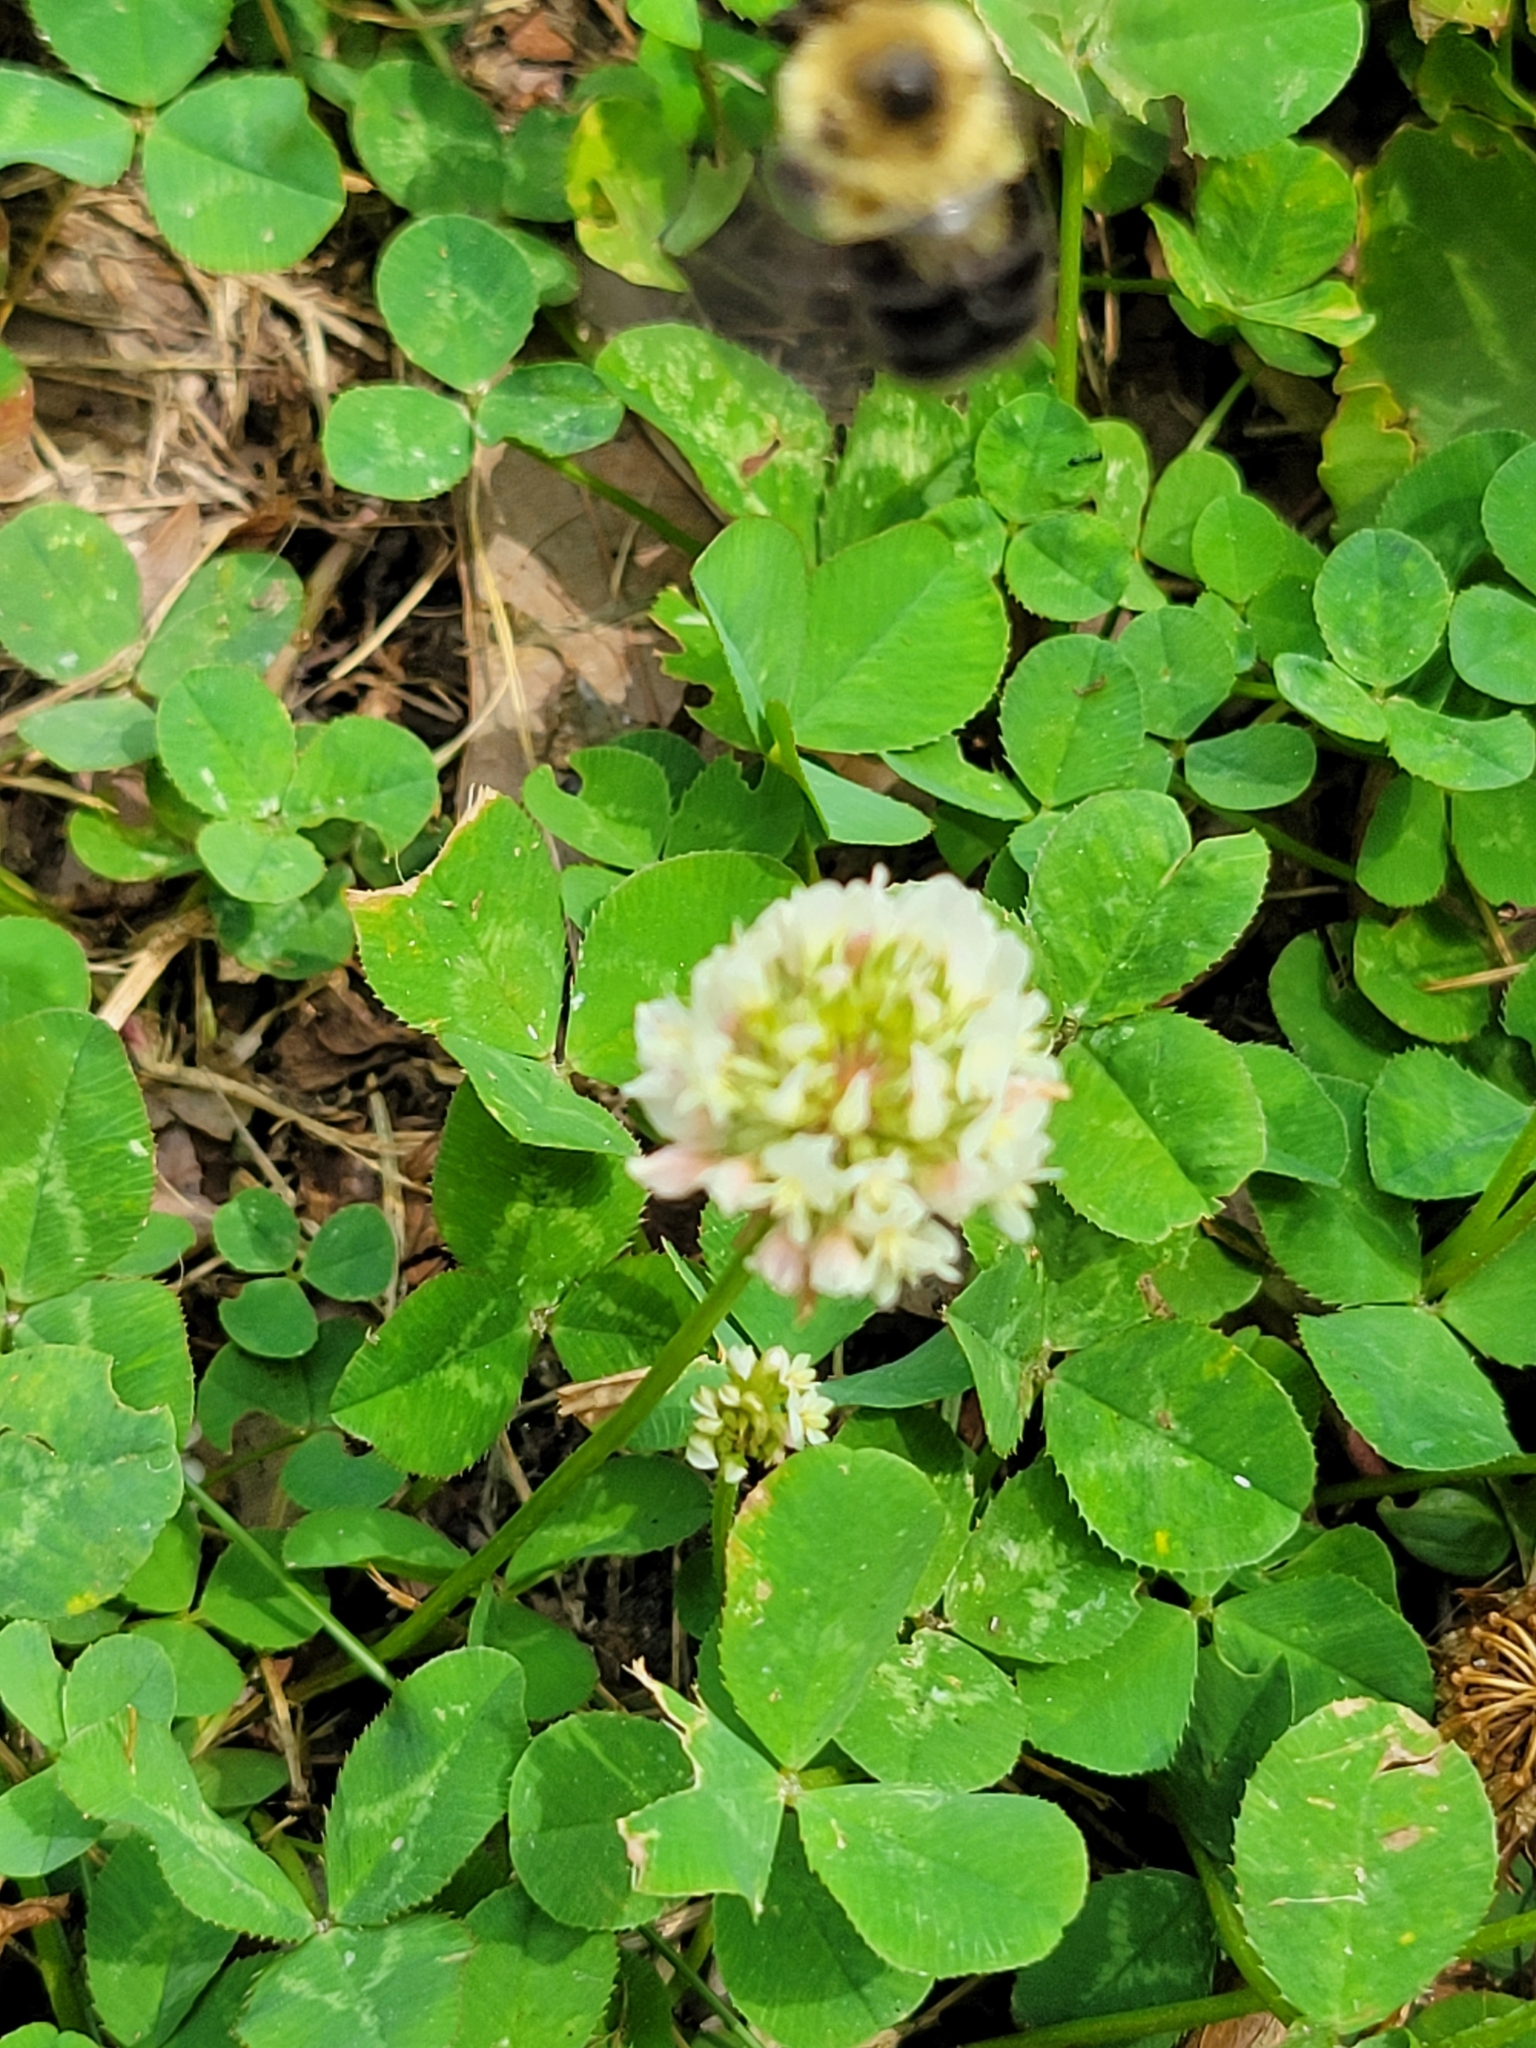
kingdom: Plantae
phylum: Tracheophyta
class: Magnoliopsida
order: Fabales
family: Fabaceae
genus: Trifolium
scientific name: Trifolium repens
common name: White clover
